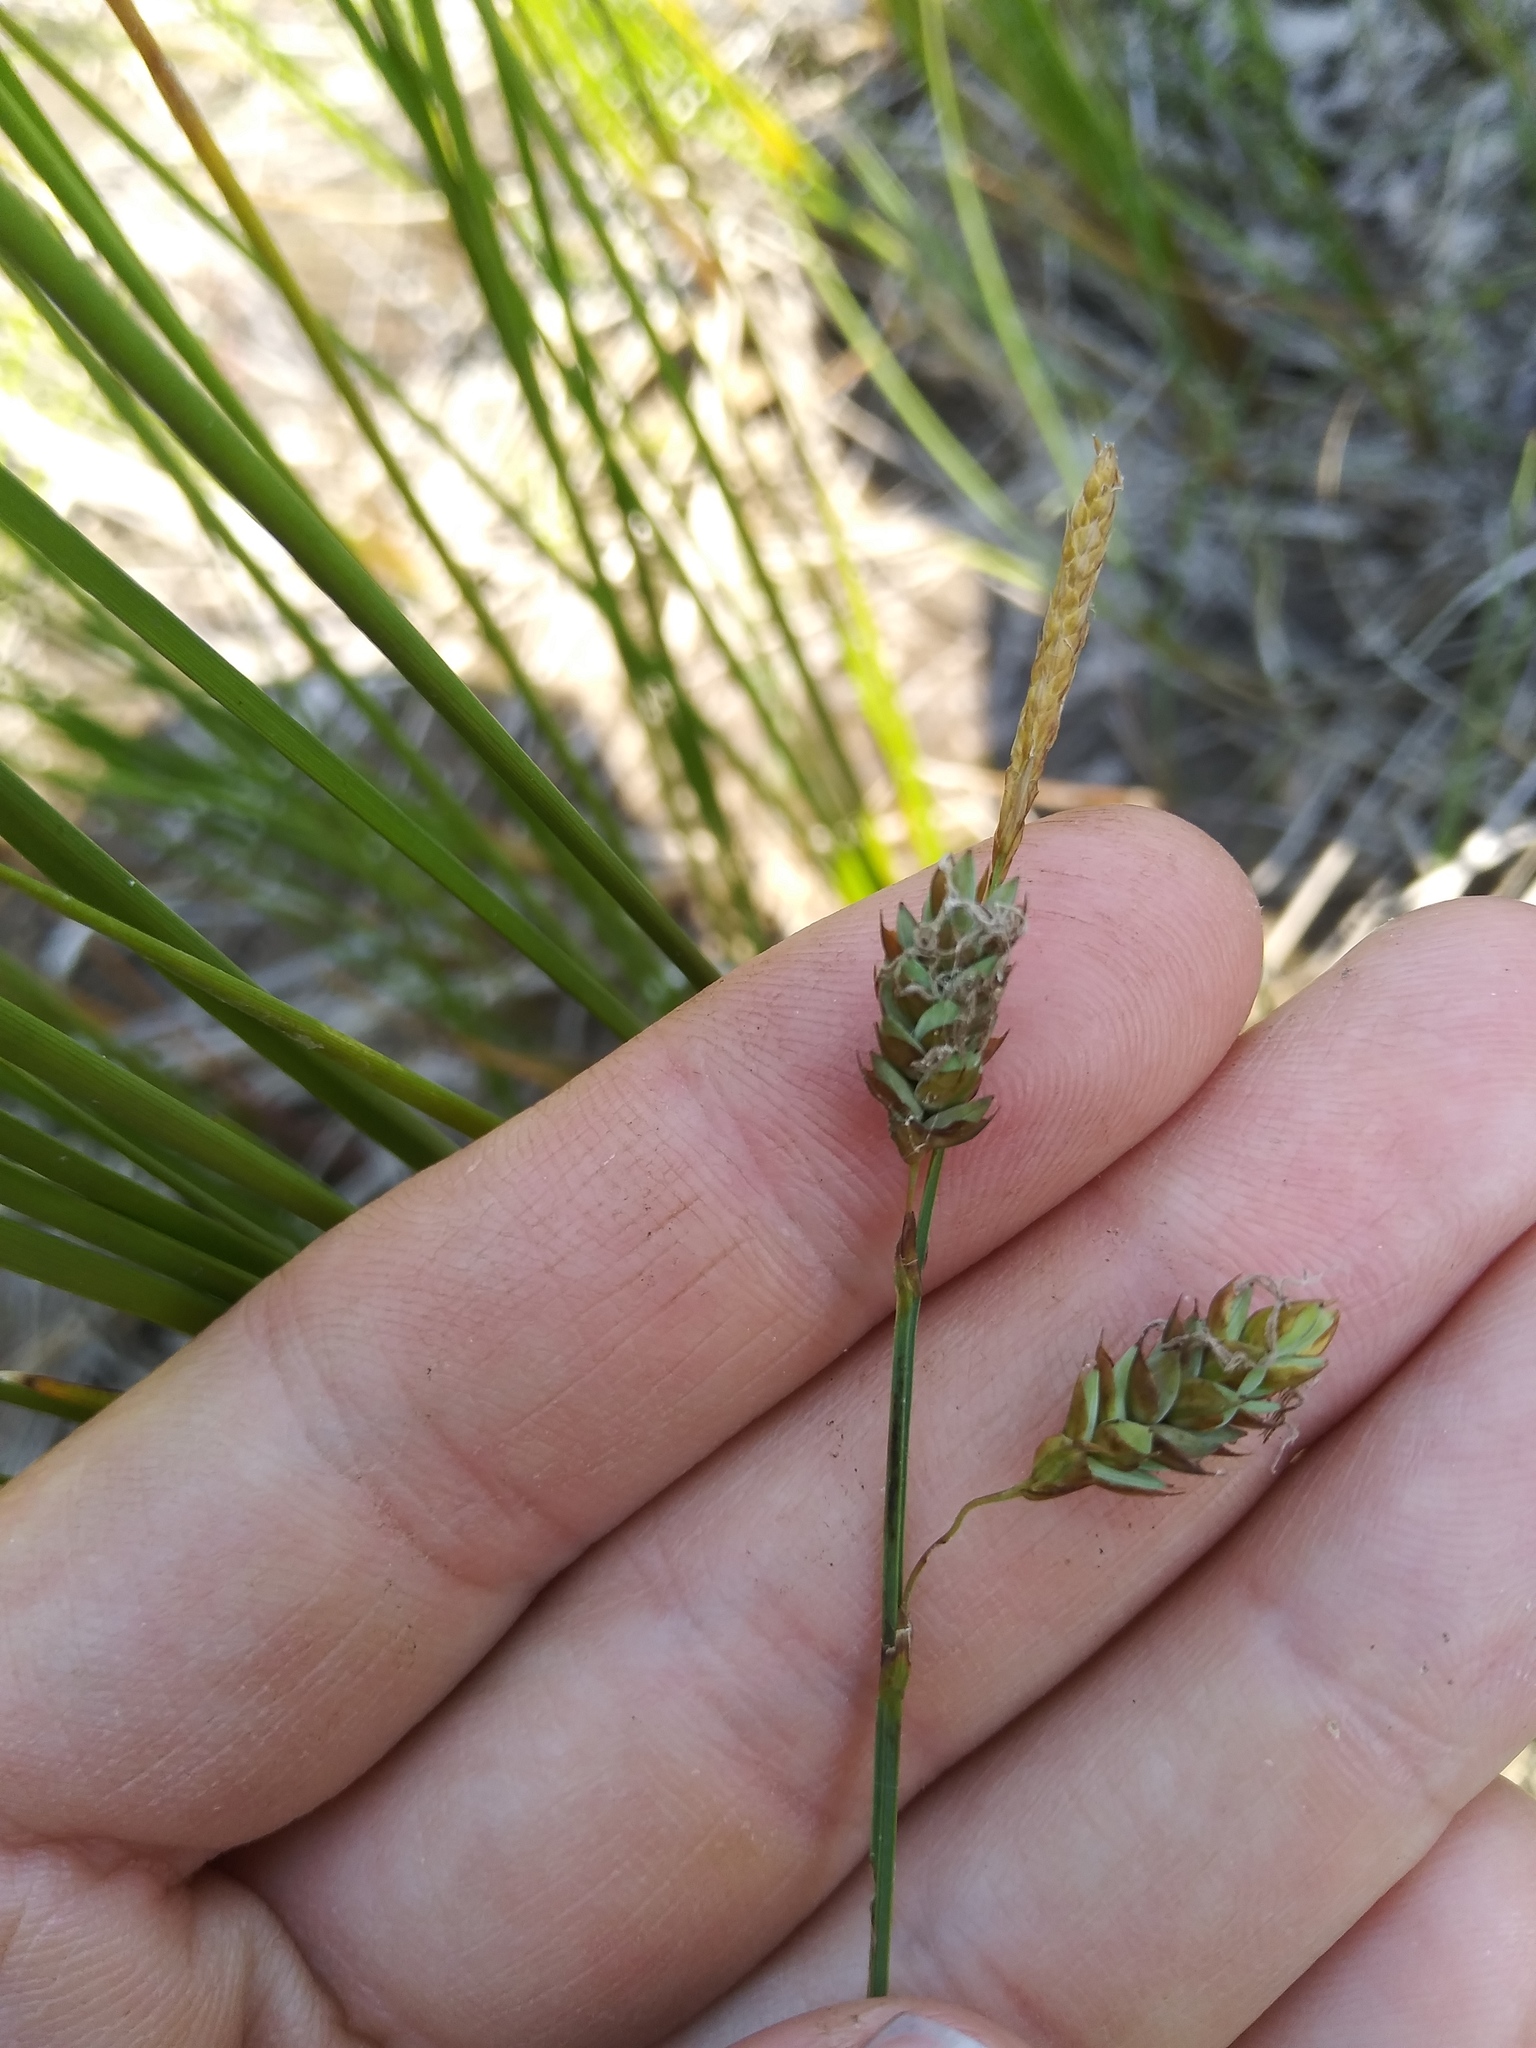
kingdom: Plantae
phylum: Tracheophyta
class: Liliopsida
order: Poales
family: Cyperaceae
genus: Carex
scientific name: Carex limosa
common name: Bog sedge
